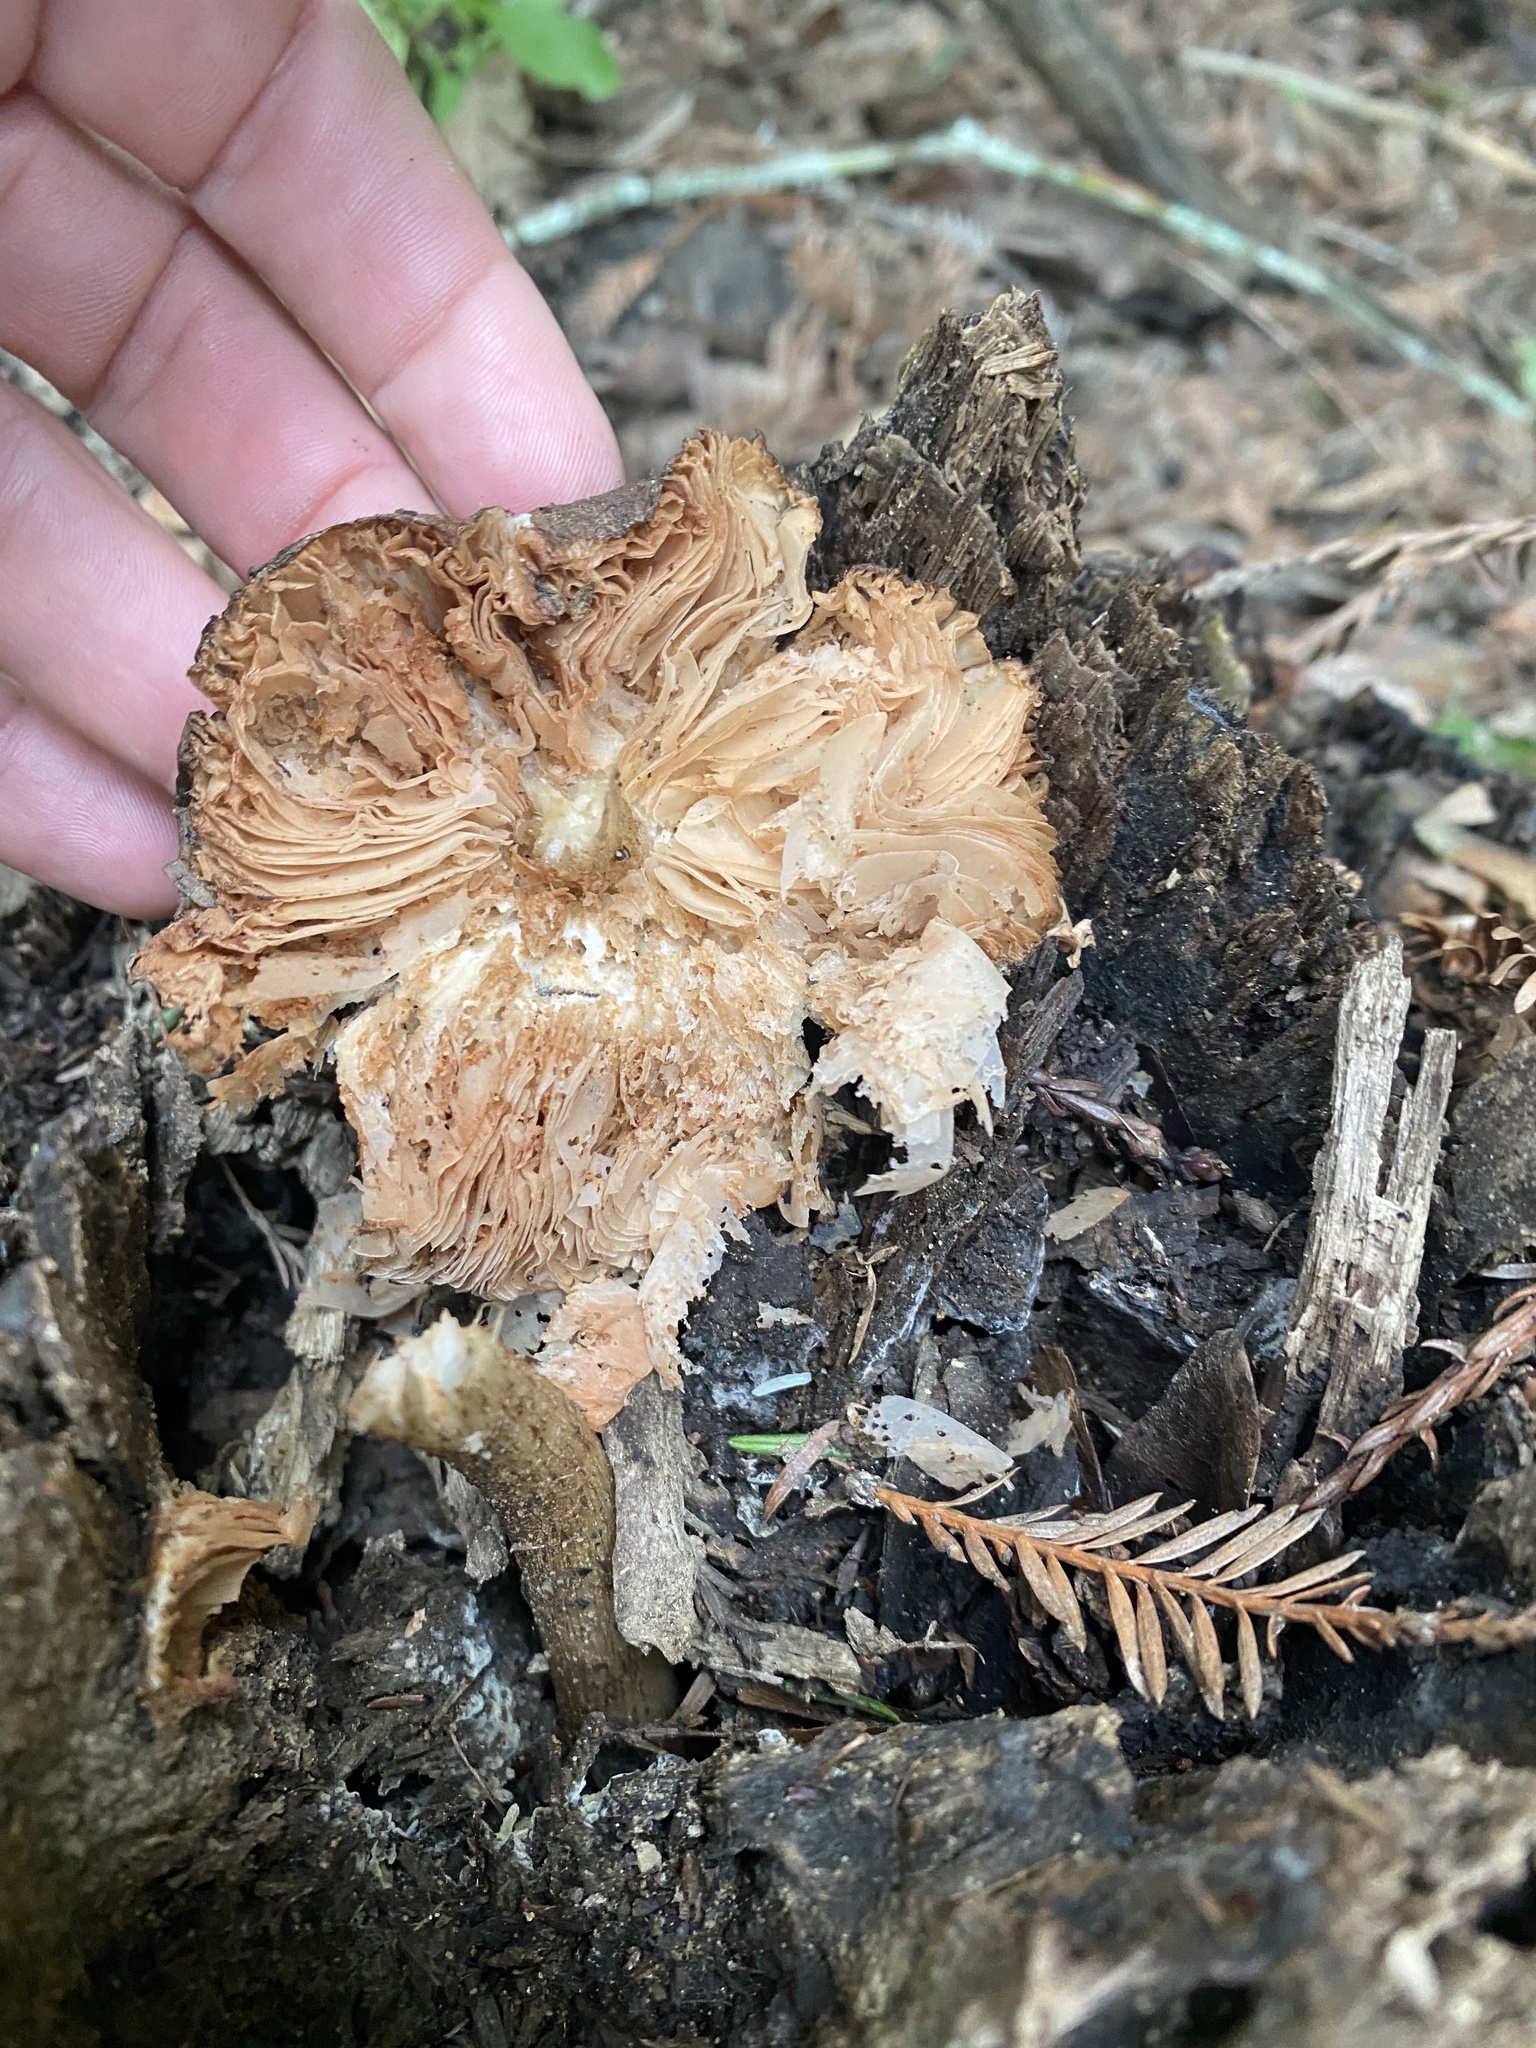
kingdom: Fungi
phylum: Basidiomycota
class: Agaricomycetes
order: Agaricales
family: Pluteaceae
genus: Pluteus
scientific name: Pluteus cervinus
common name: Deer shield
